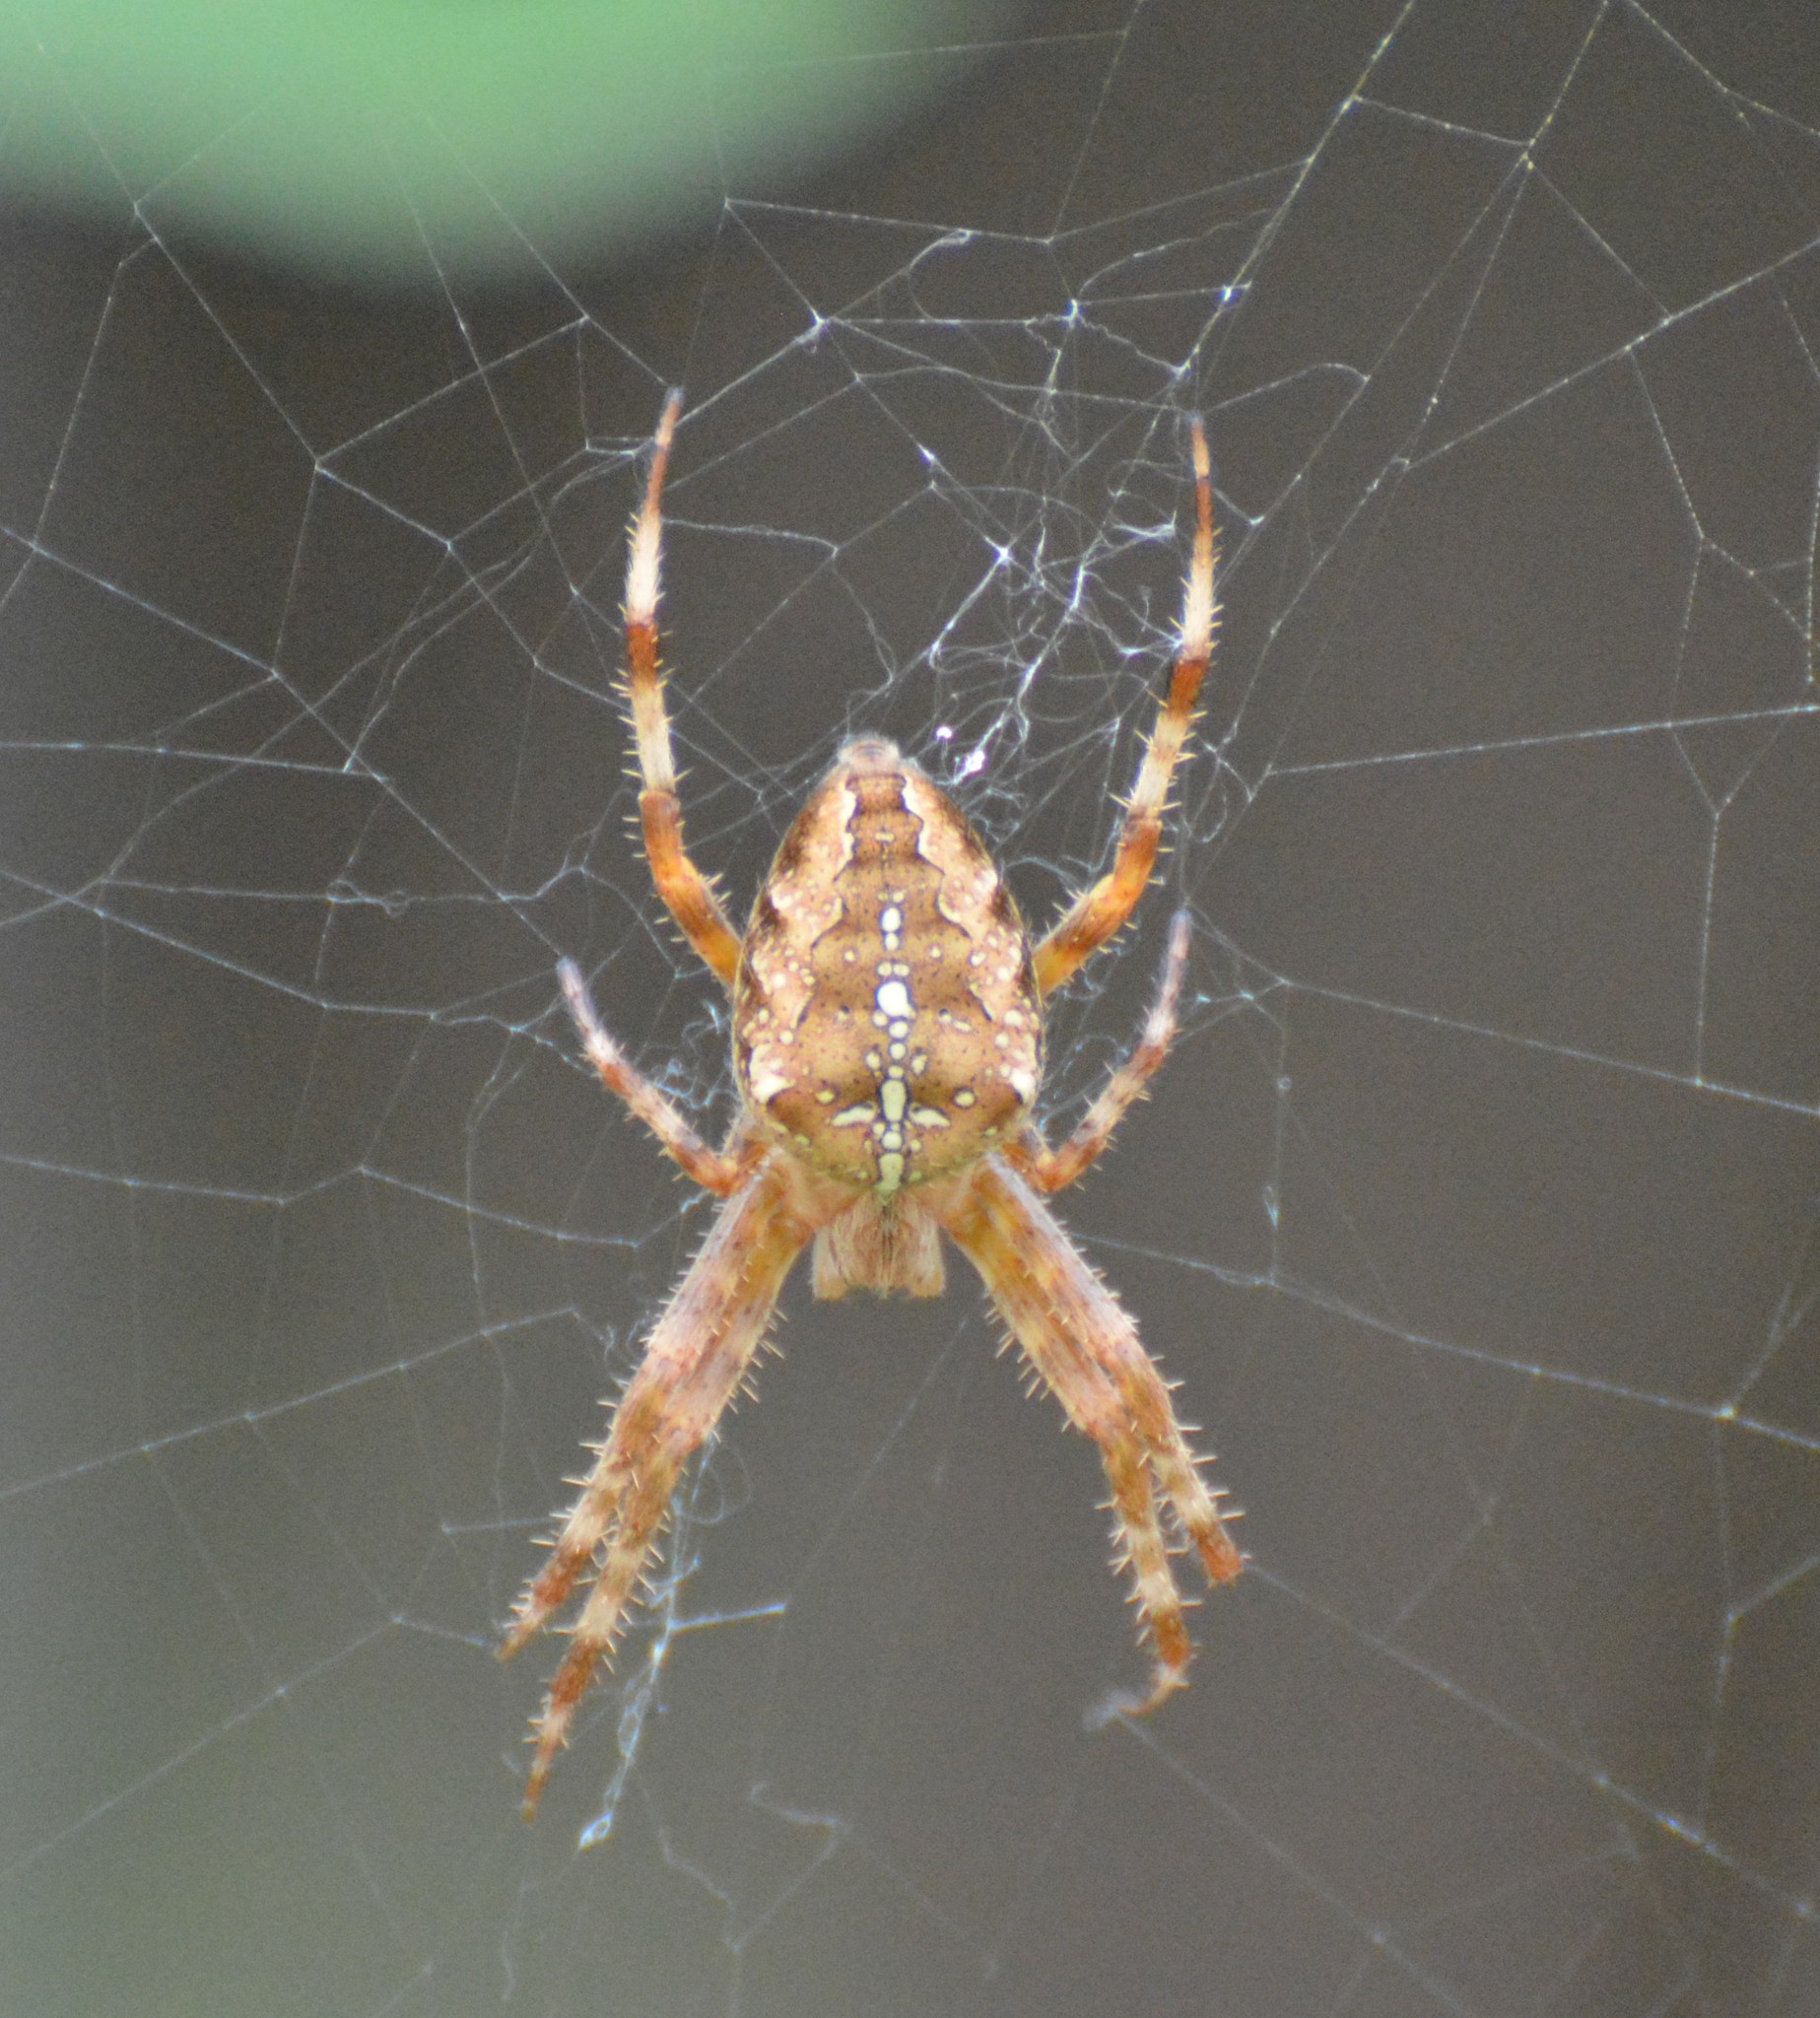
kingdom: Animalia
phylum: Arthropoda
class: Arachnida
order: Araneae
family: Araneidae
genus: Araneus
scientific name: Araneus diadematus
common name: Cross orbweaver
